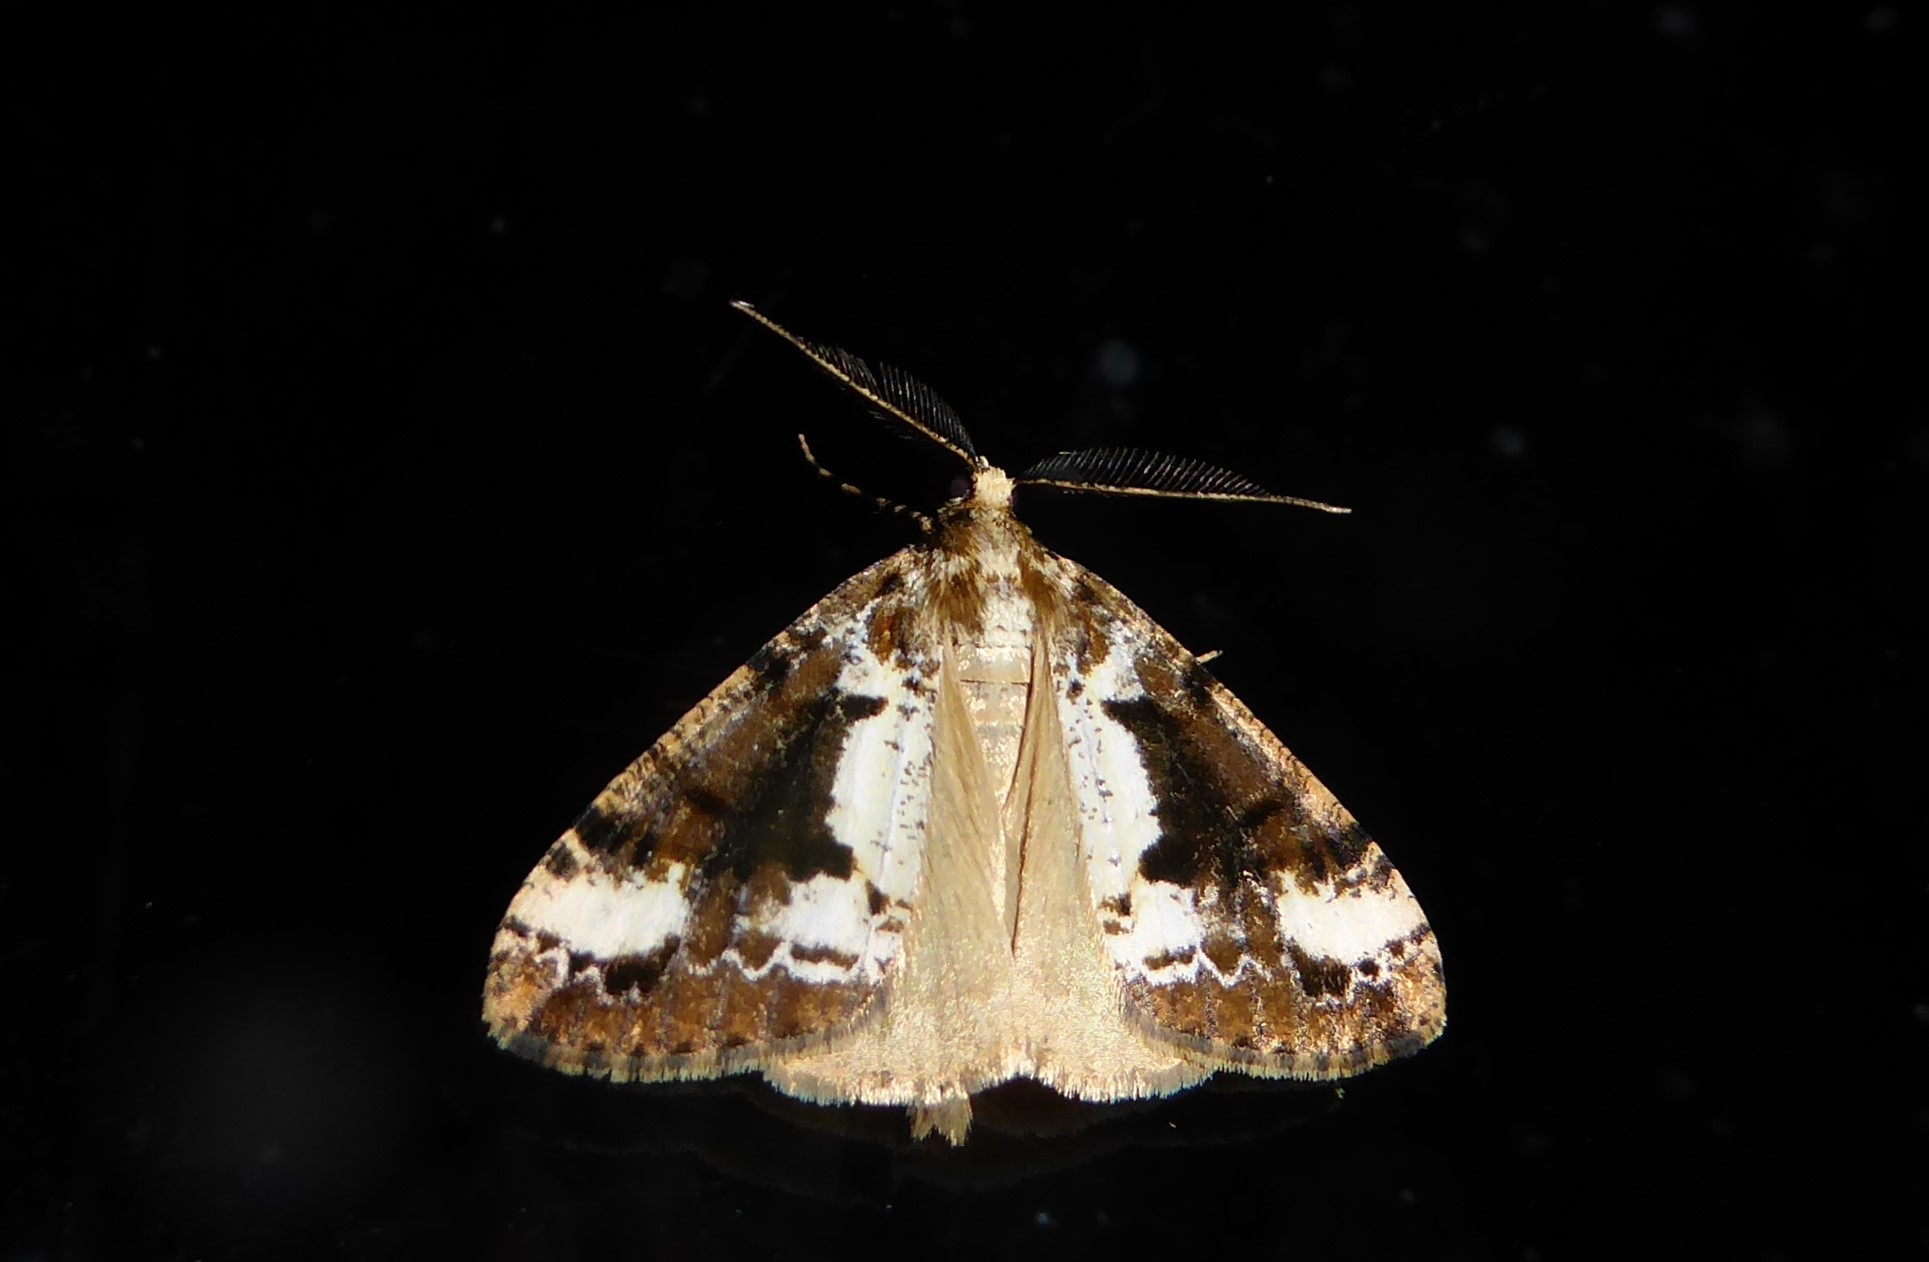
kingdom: Animalia
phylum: Arthropoda
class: Insecta
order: Lepidoptera
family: Geometridae
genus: Pseudocoremia
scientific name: Pseudocoremia leucelaea
